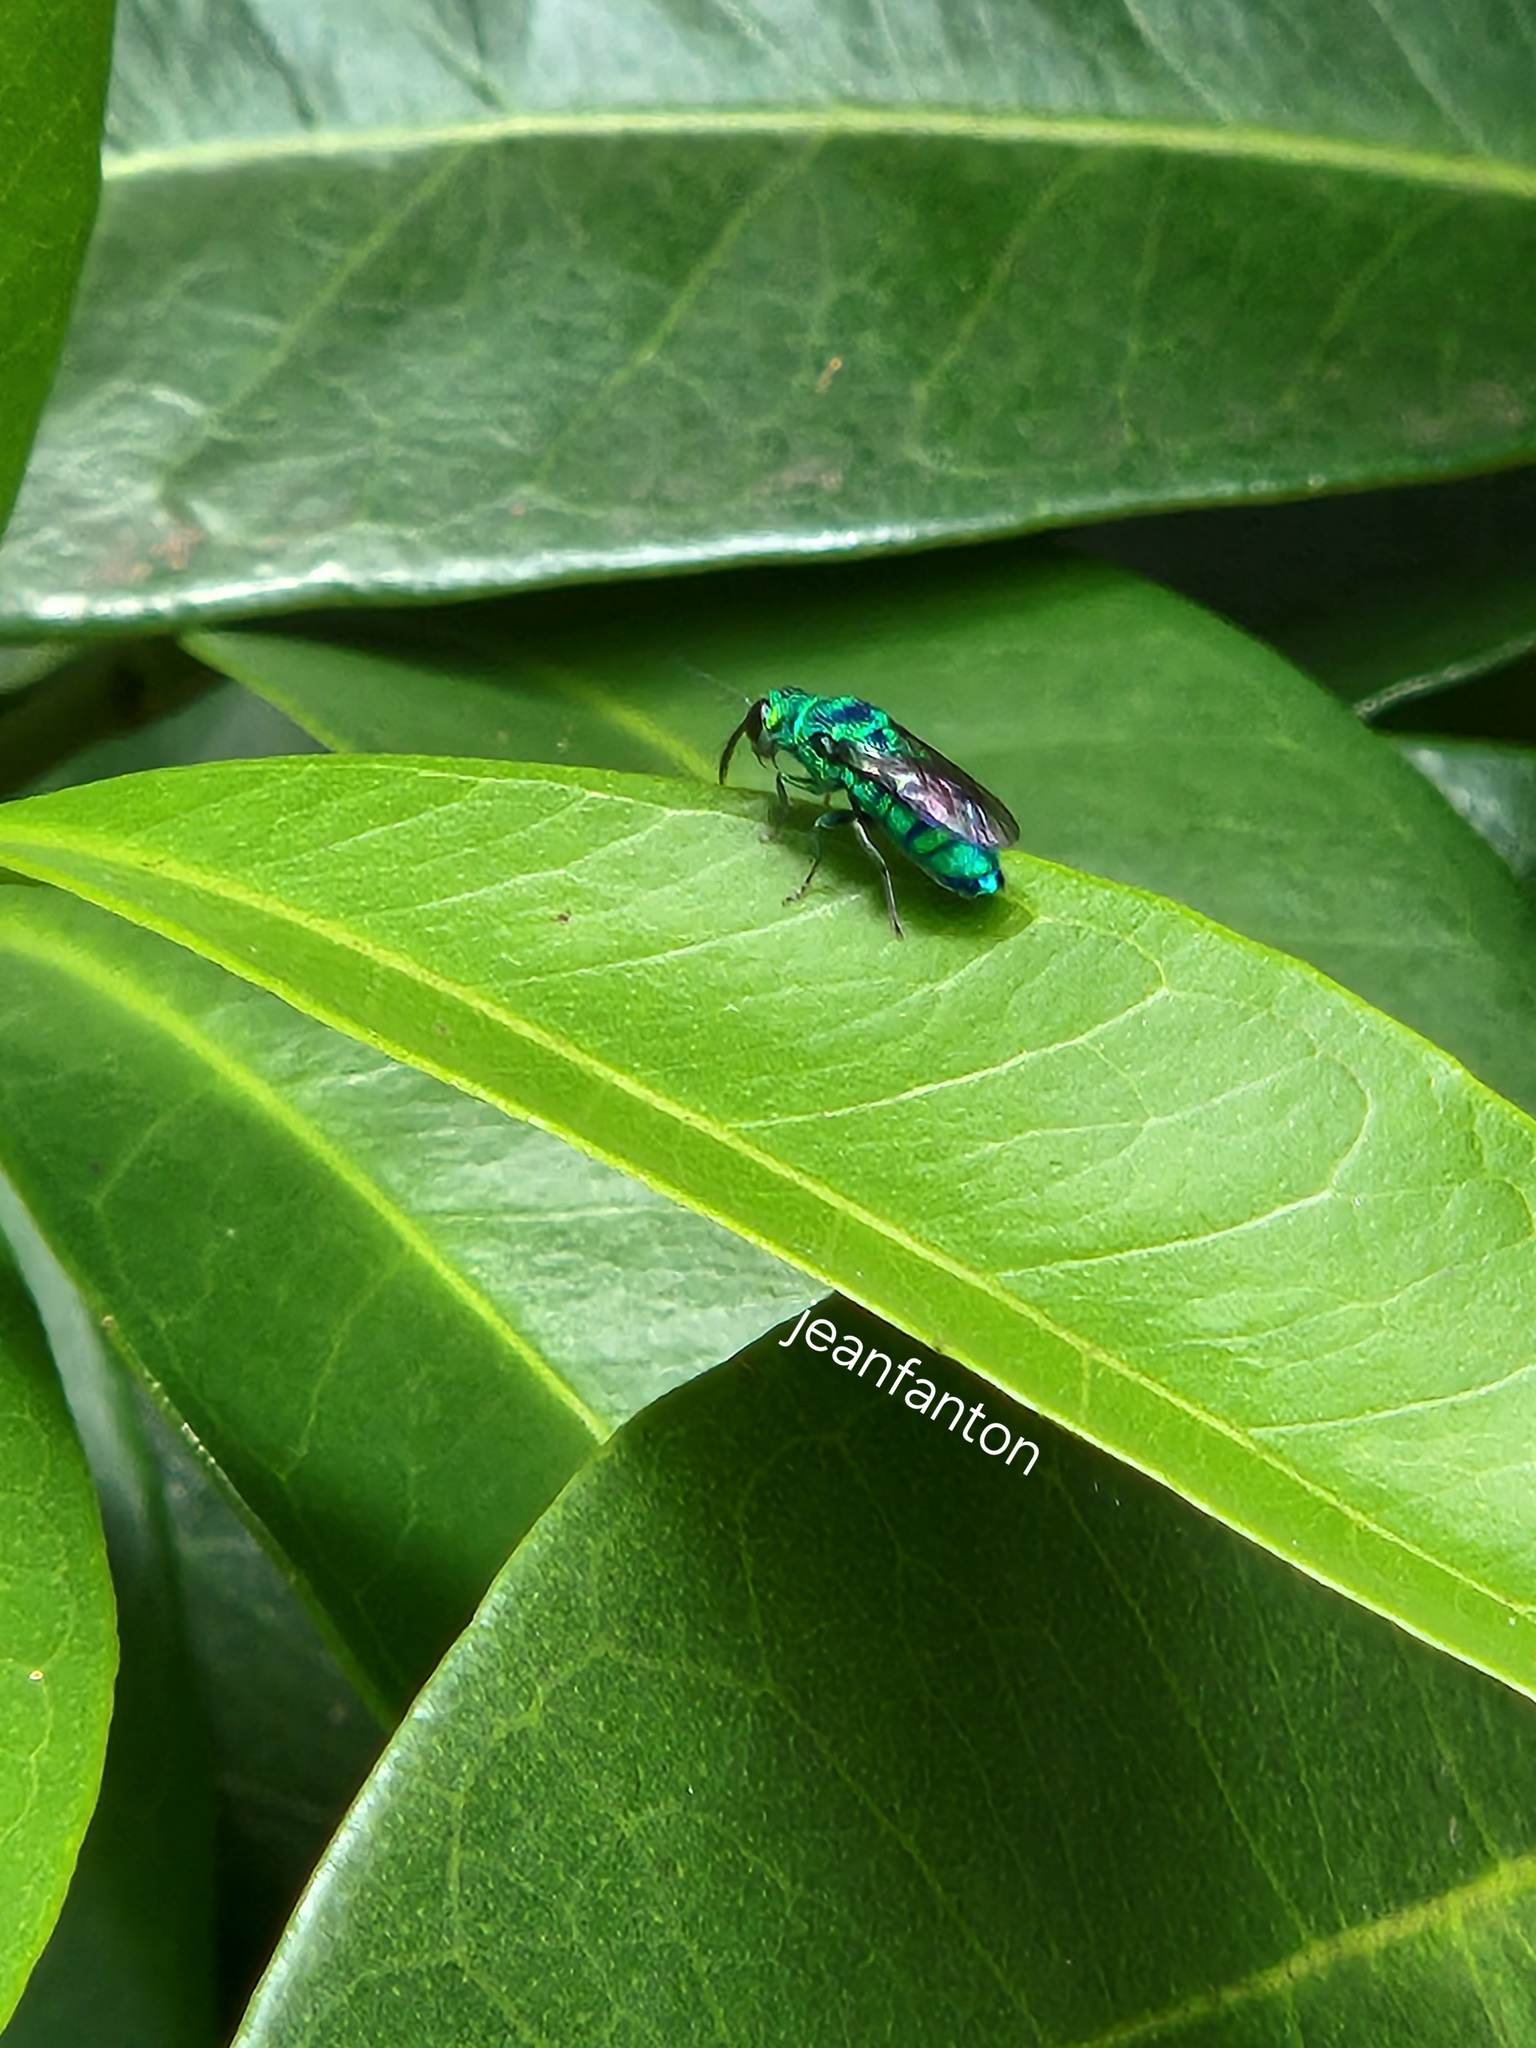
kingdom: Animalia
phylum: Arthropoda
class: Insecta
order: Hymenoptera
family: Chrysididae
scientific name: Chrysididae
